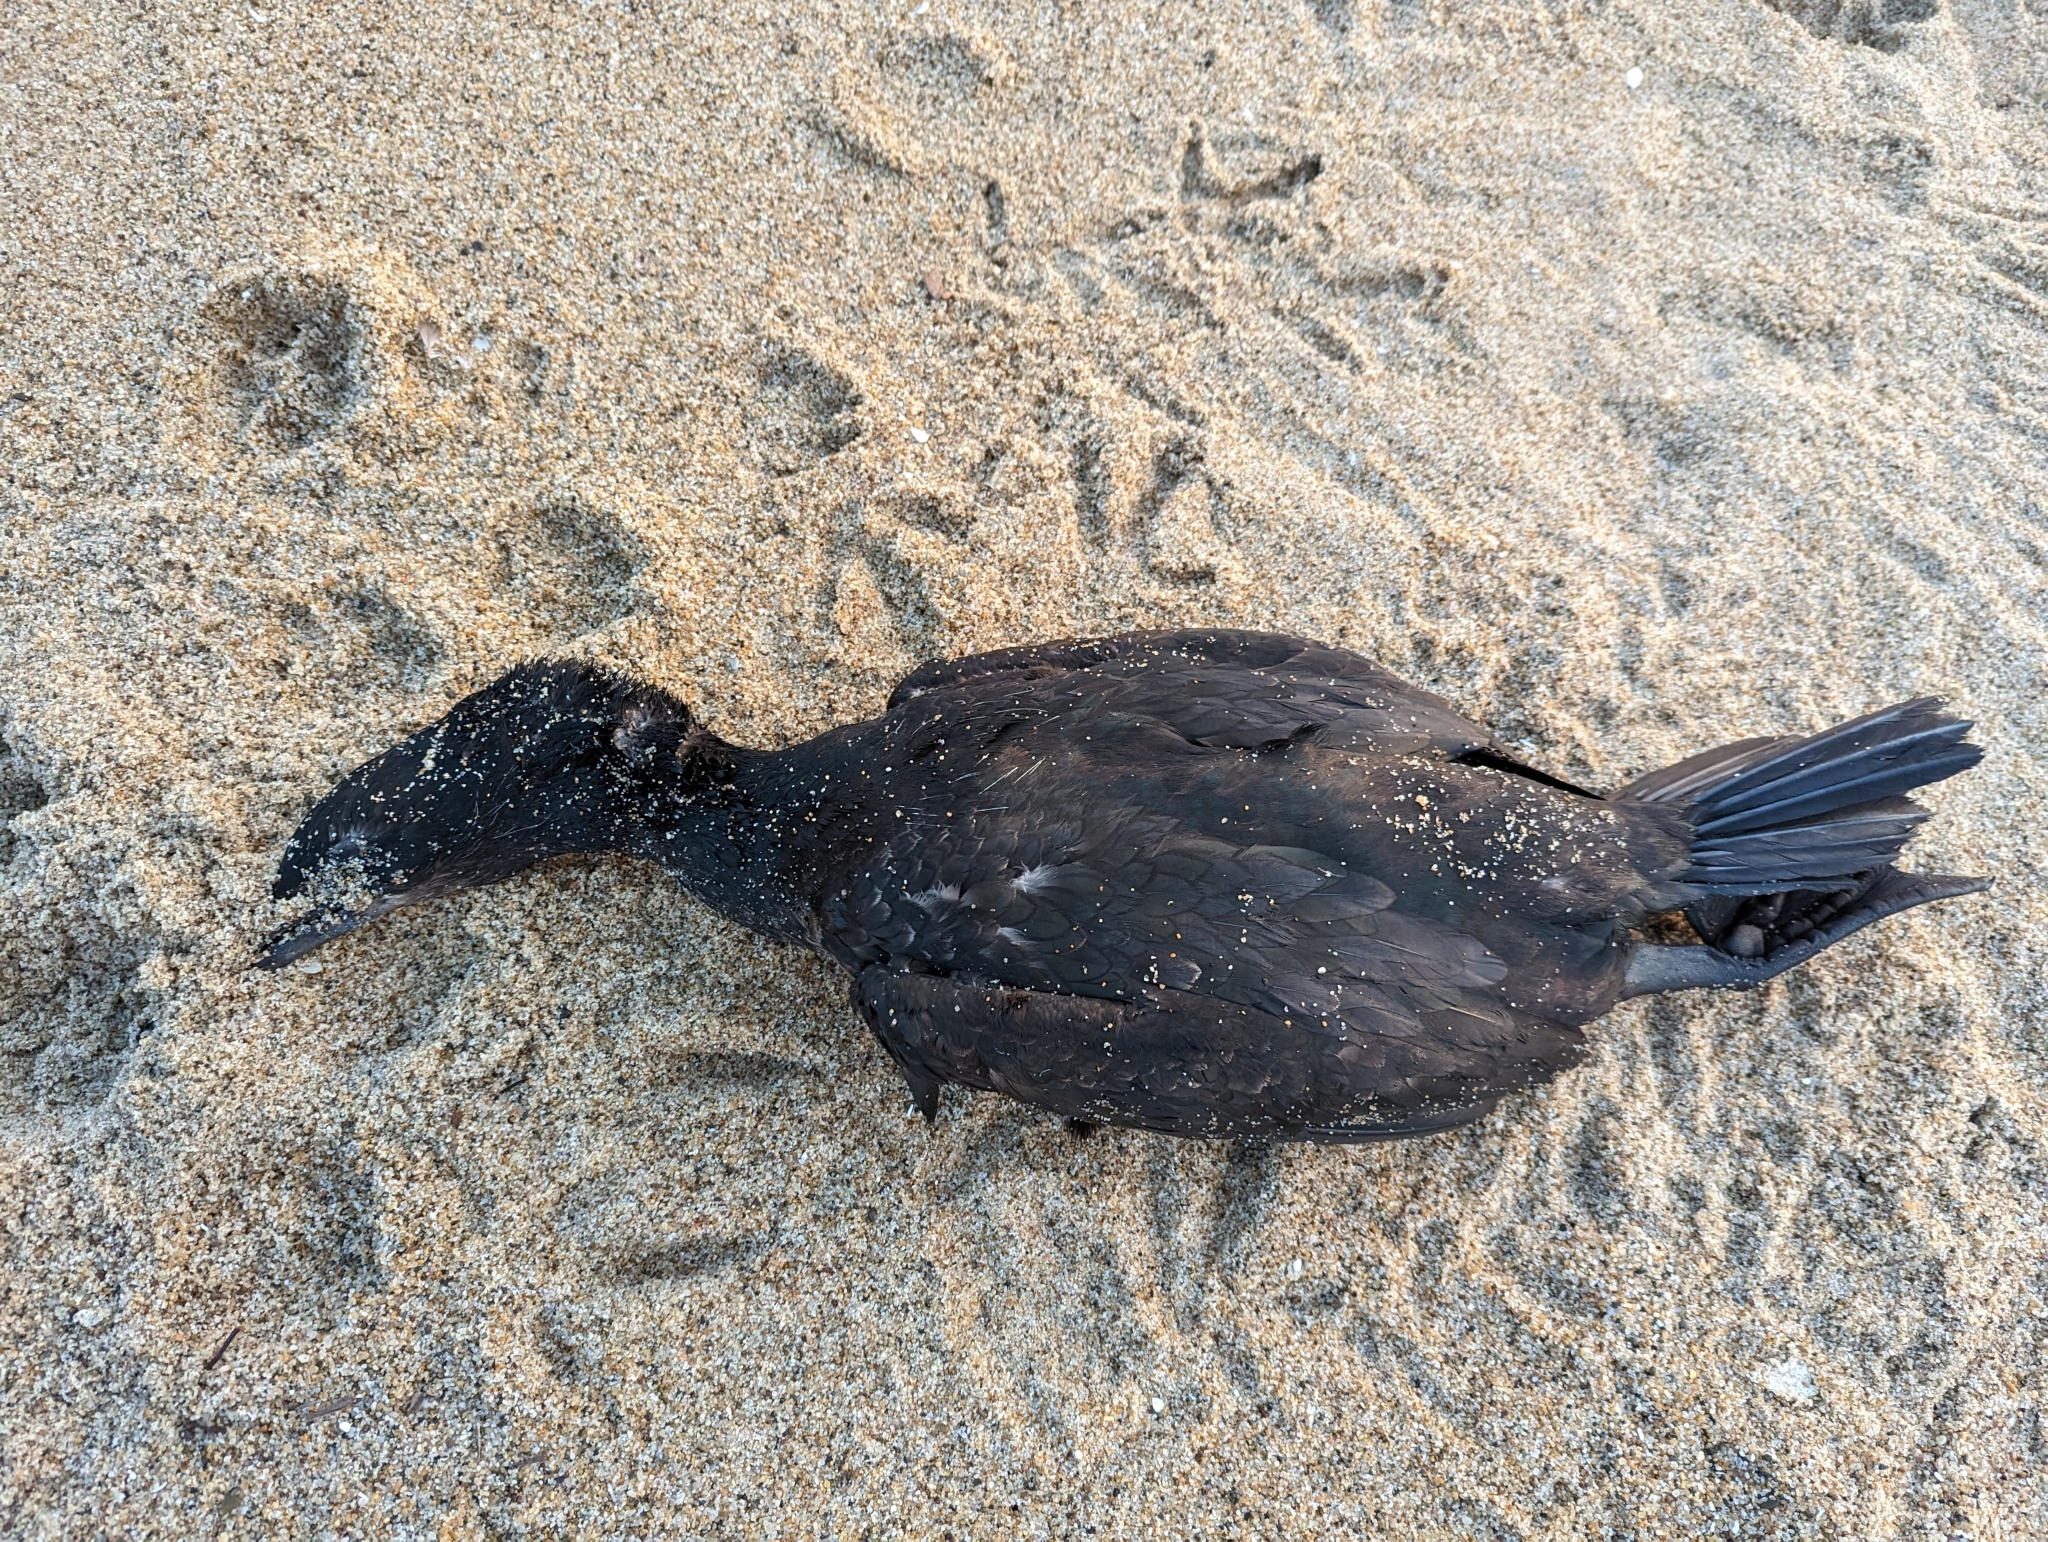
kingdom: Animalia
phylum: Chordata
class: Aves
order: Suliformes
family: Phalacrocoracidae
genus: Urile
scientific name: Urile penicillatus
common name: Brandt's cormorant
